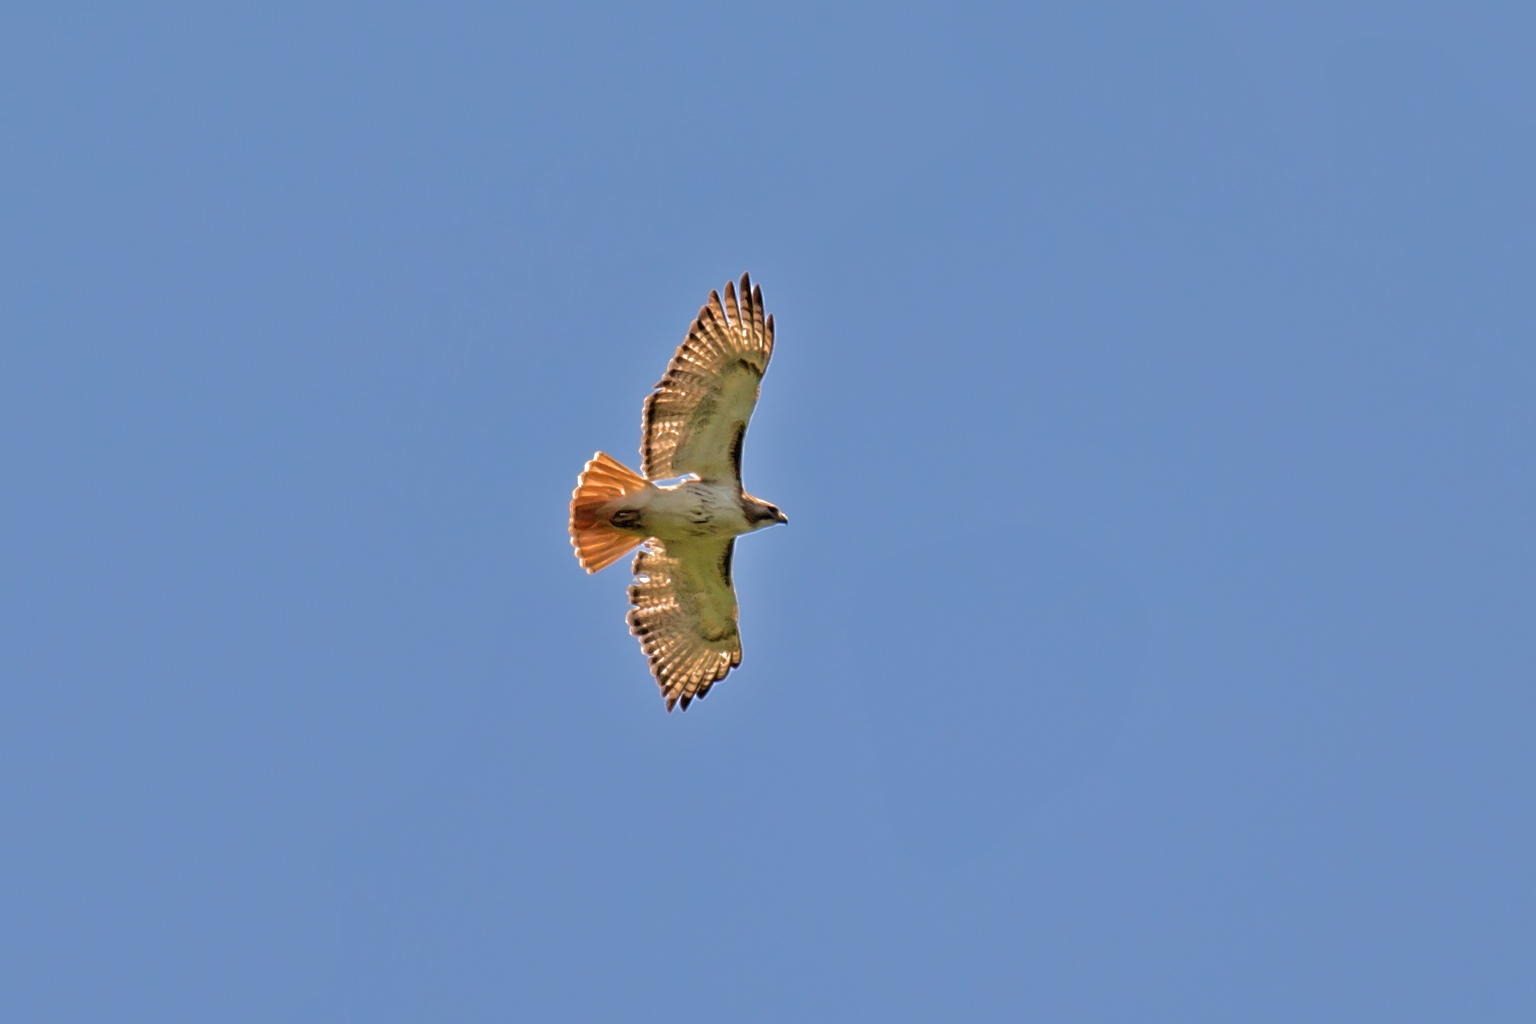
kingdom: Animalia
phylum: Chordata
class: Aves
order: Accipitriformes
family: Accipitridae
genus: Buteo
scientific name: Buteo jamaicensis
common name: Red-tailed hawk
